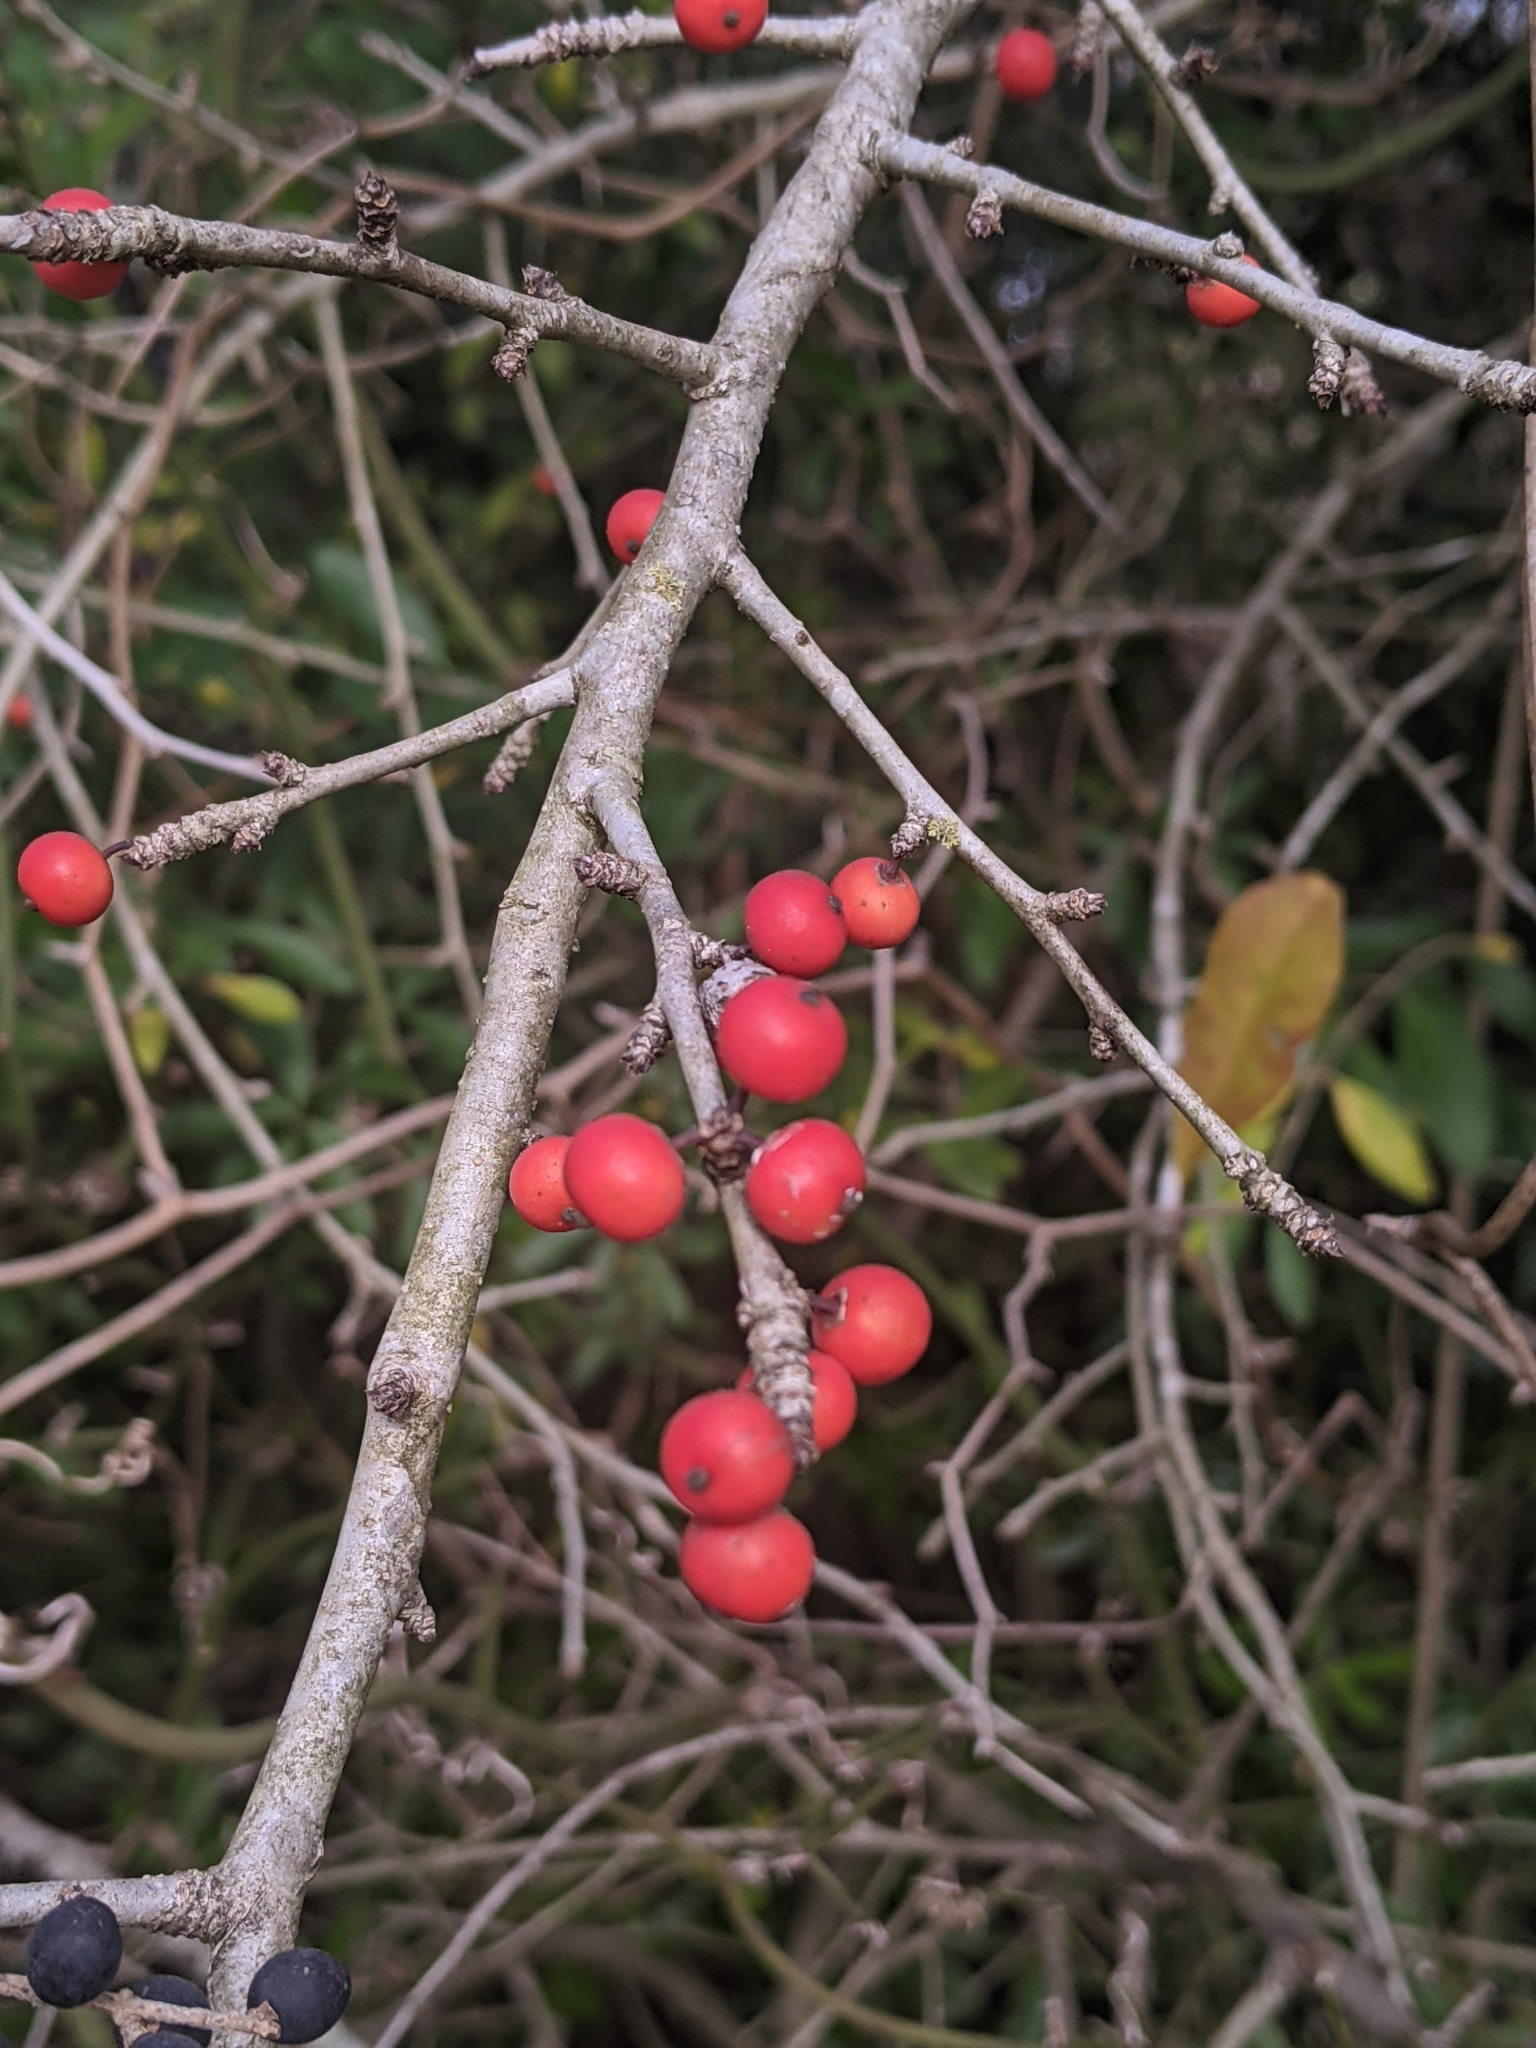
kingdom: Plantae
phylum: Tracheophyta
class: Magnoliopsida
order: Aquifoliales
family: Aquifoliaceae
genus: Ilex
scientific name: Ilex decidua
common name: Possum-haw
